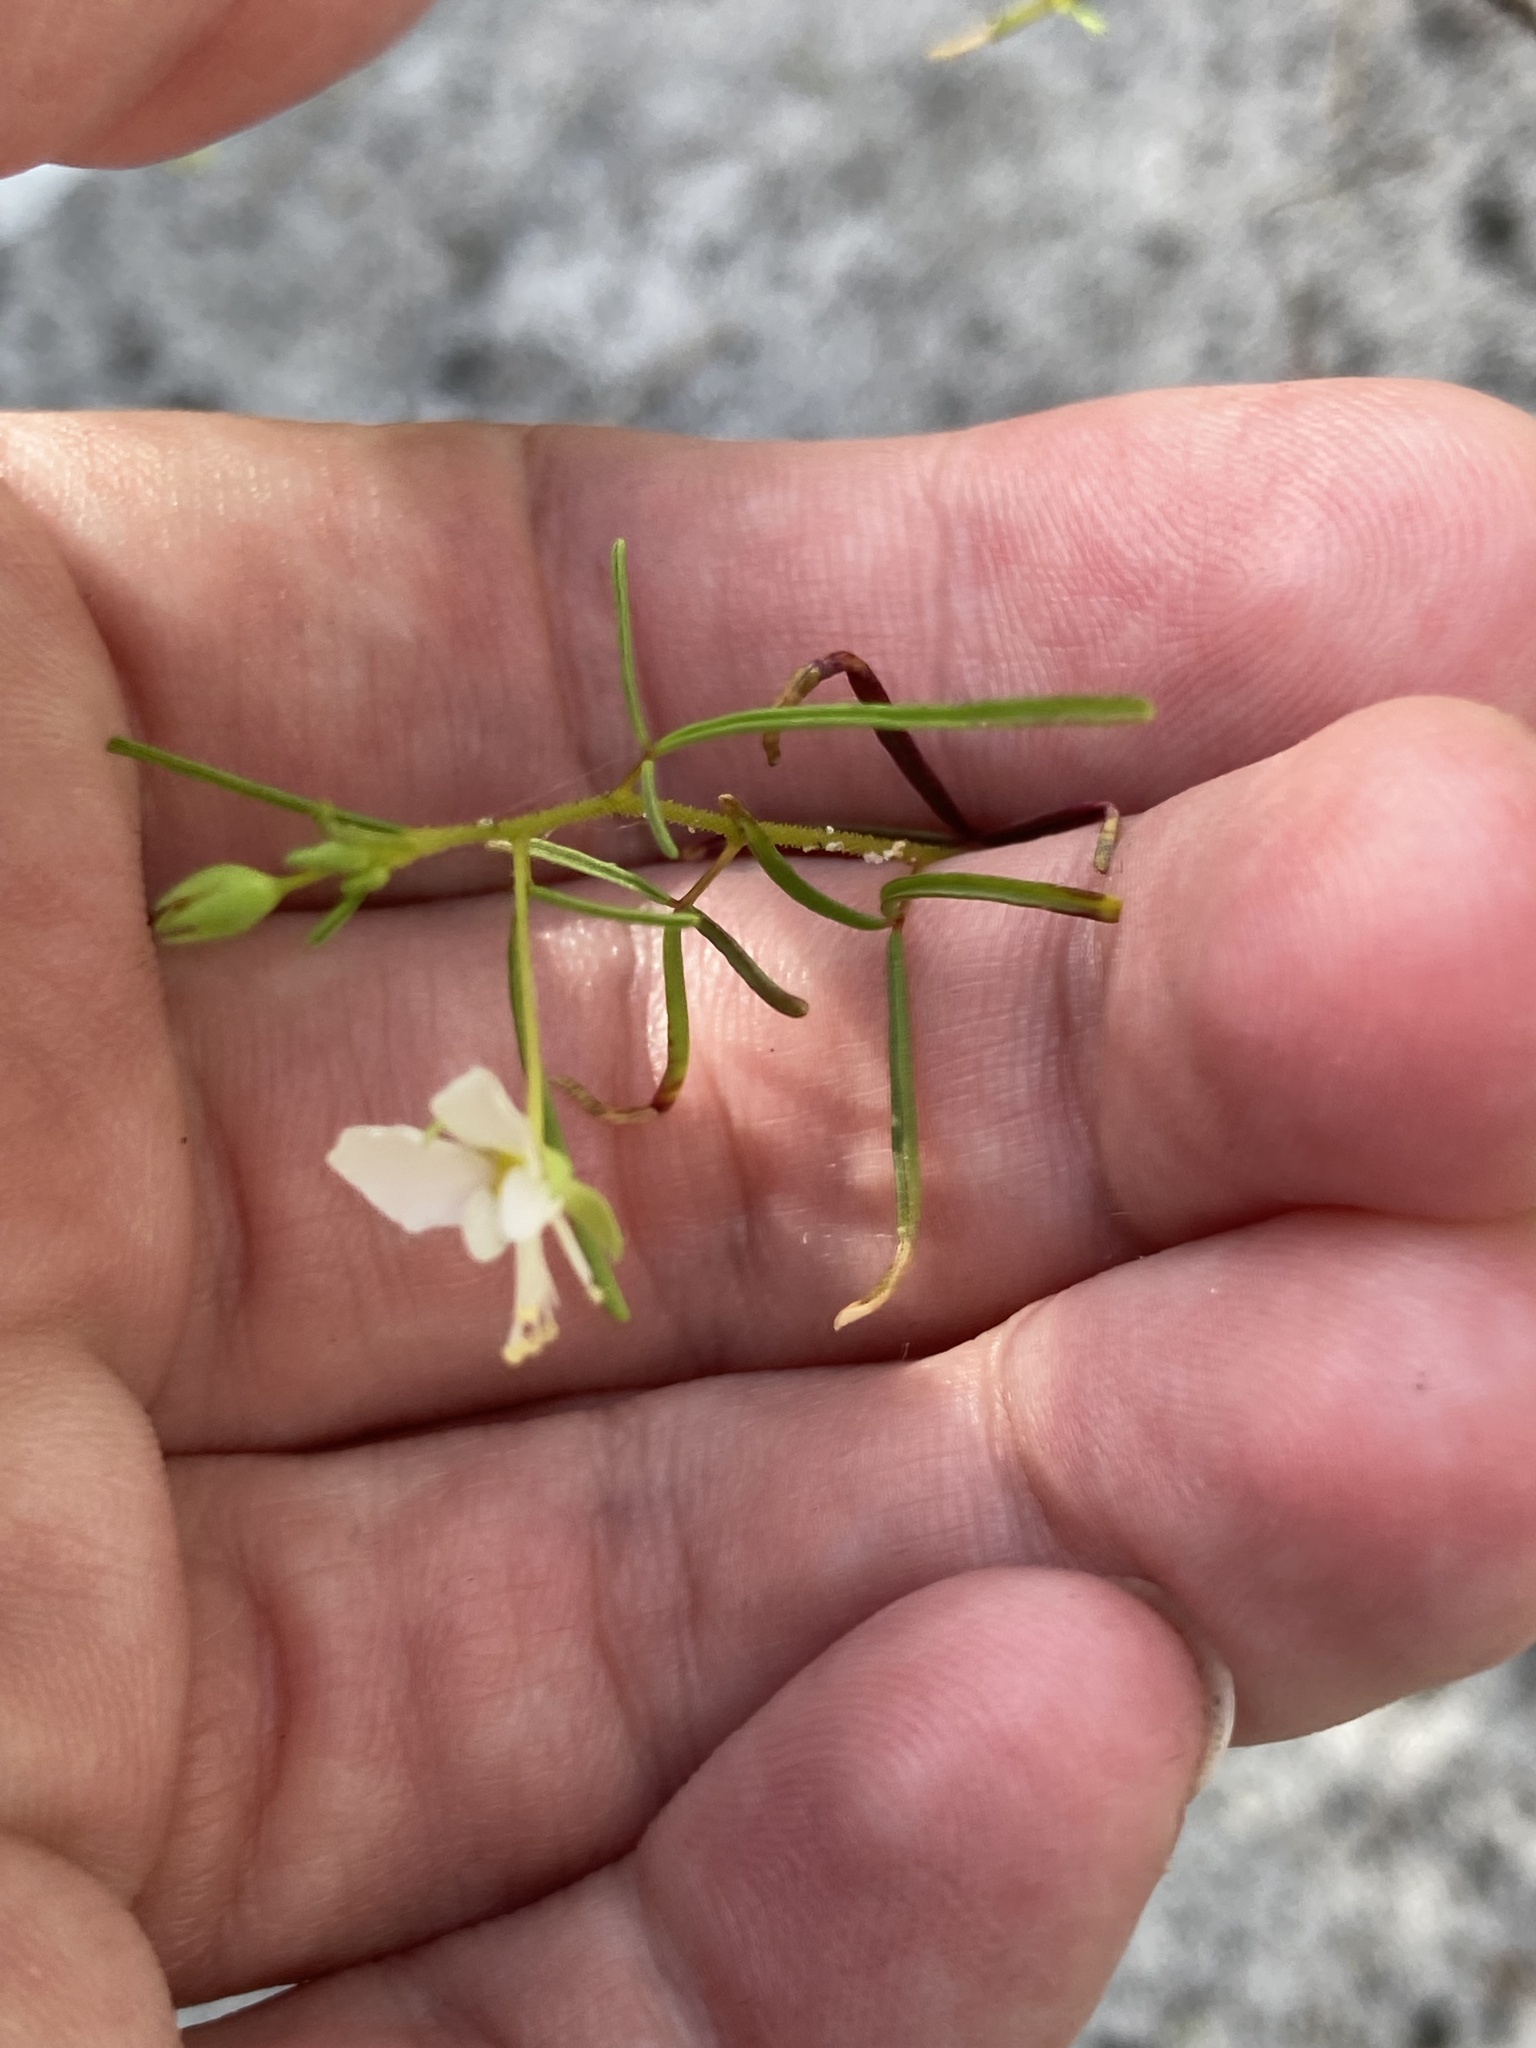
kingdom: Plantae
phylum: Tracheophyta
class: Magnoliopsida
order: Brassicales
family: Cleomaceae
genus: Polanisia
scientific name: Polanisia tenuifolia
